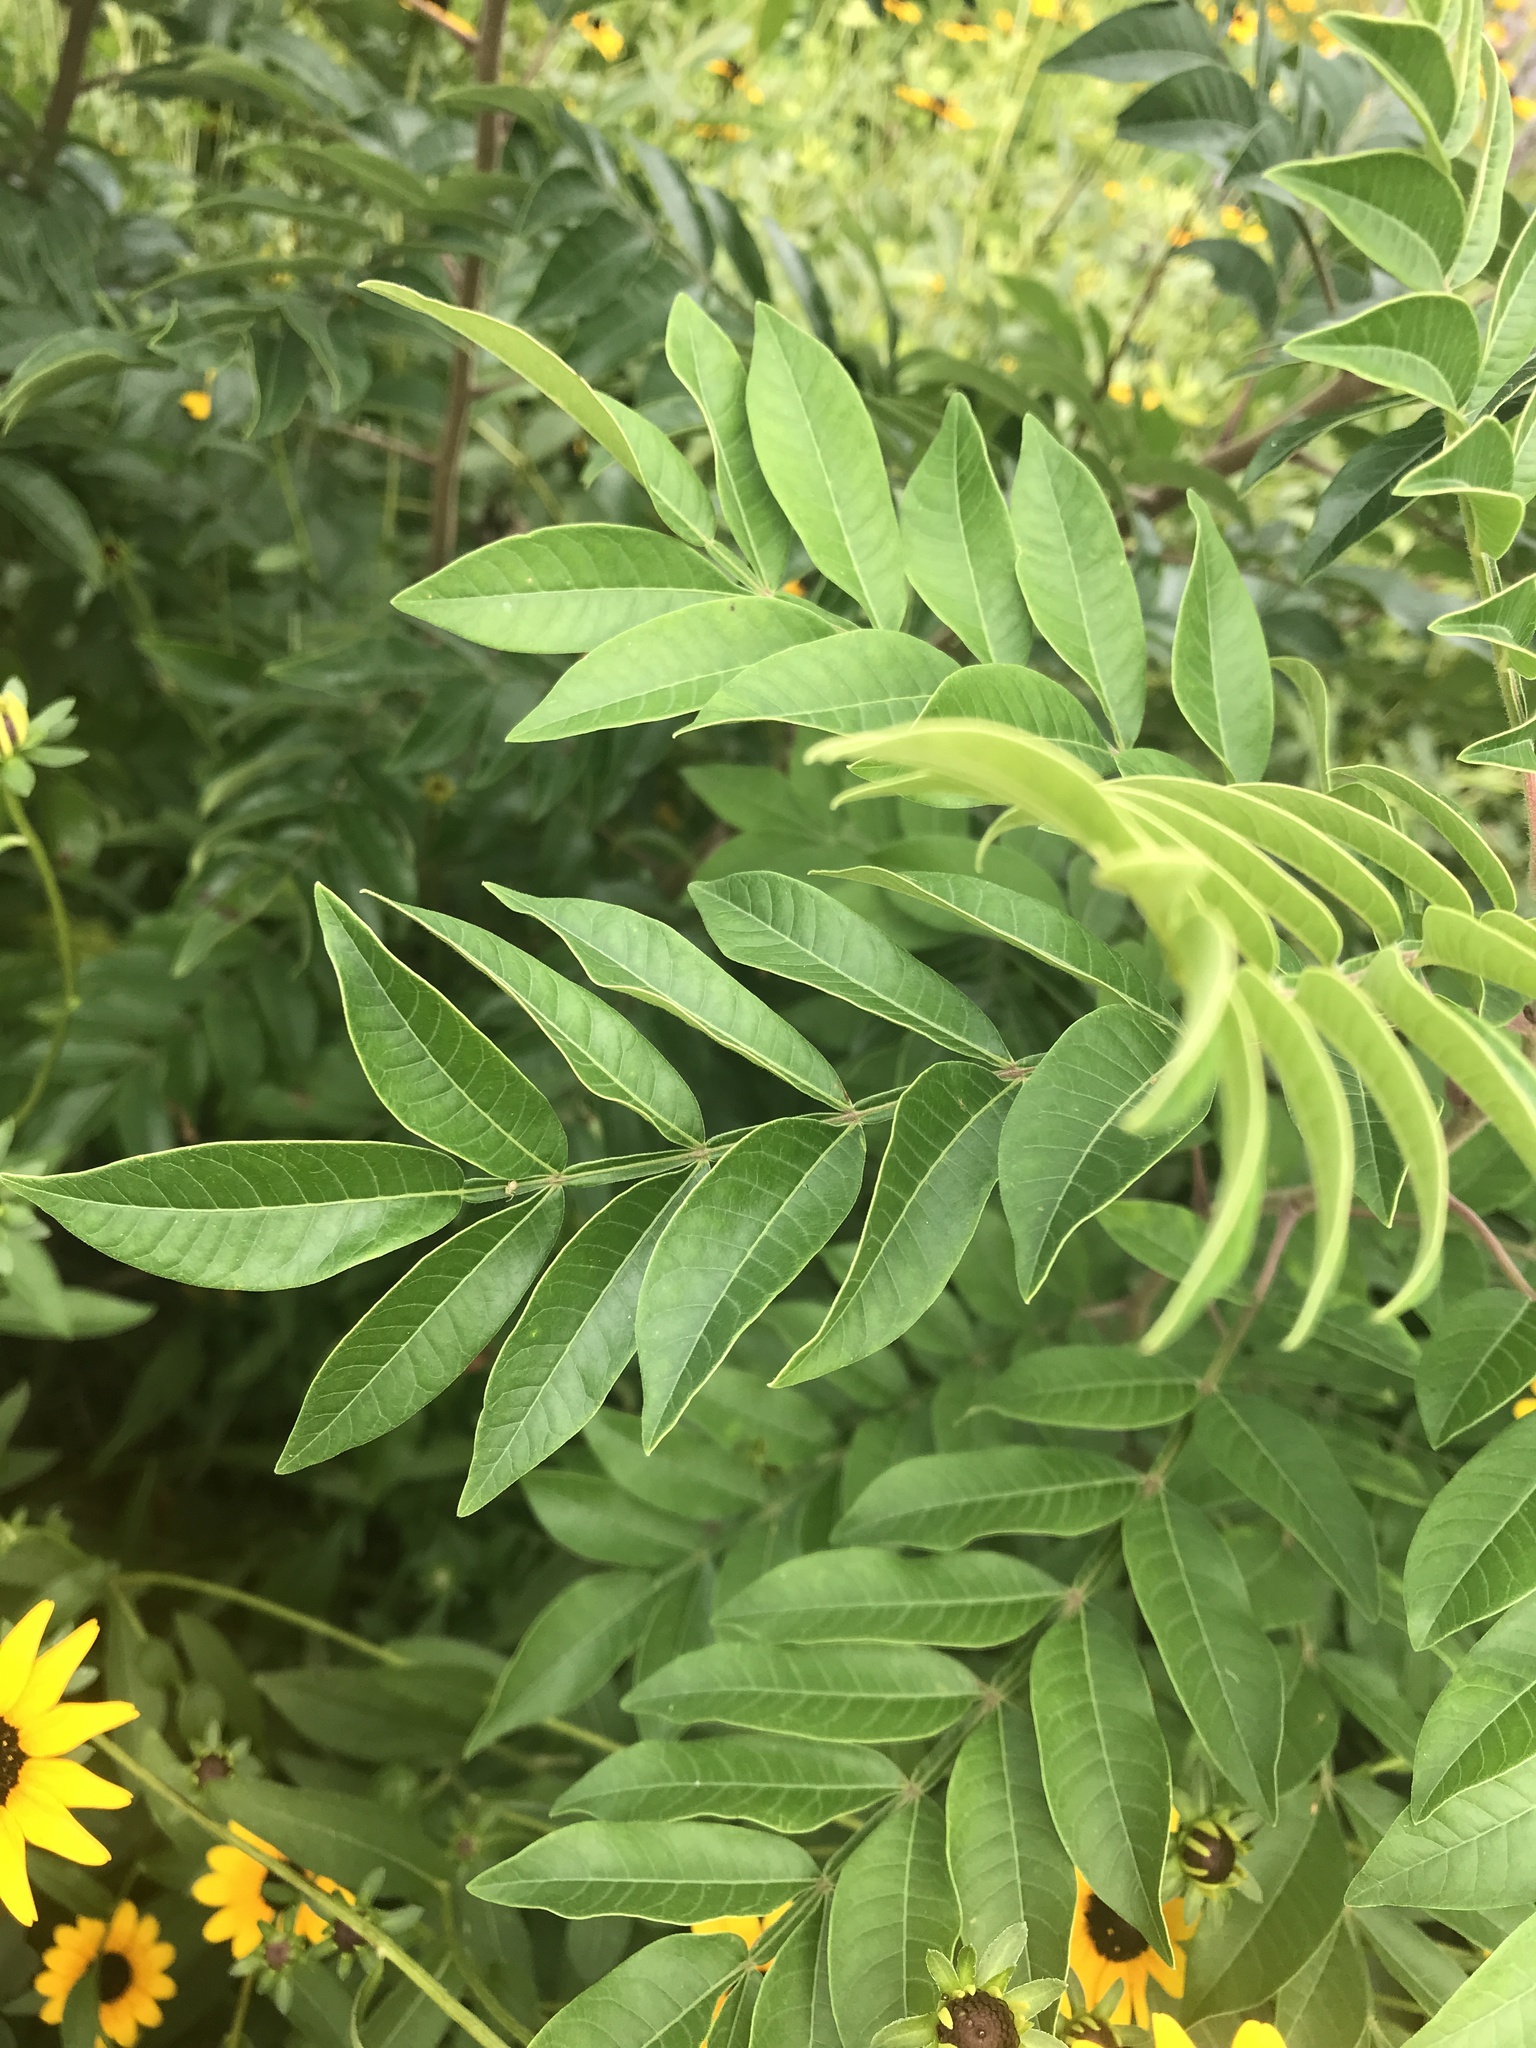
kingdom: Plantae
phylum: Tracheophyta
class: Magnoliopsida
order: Sapindales
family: Anacardiaceae
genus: Rhus
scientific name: Rhus copallina
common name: Shining sumac
